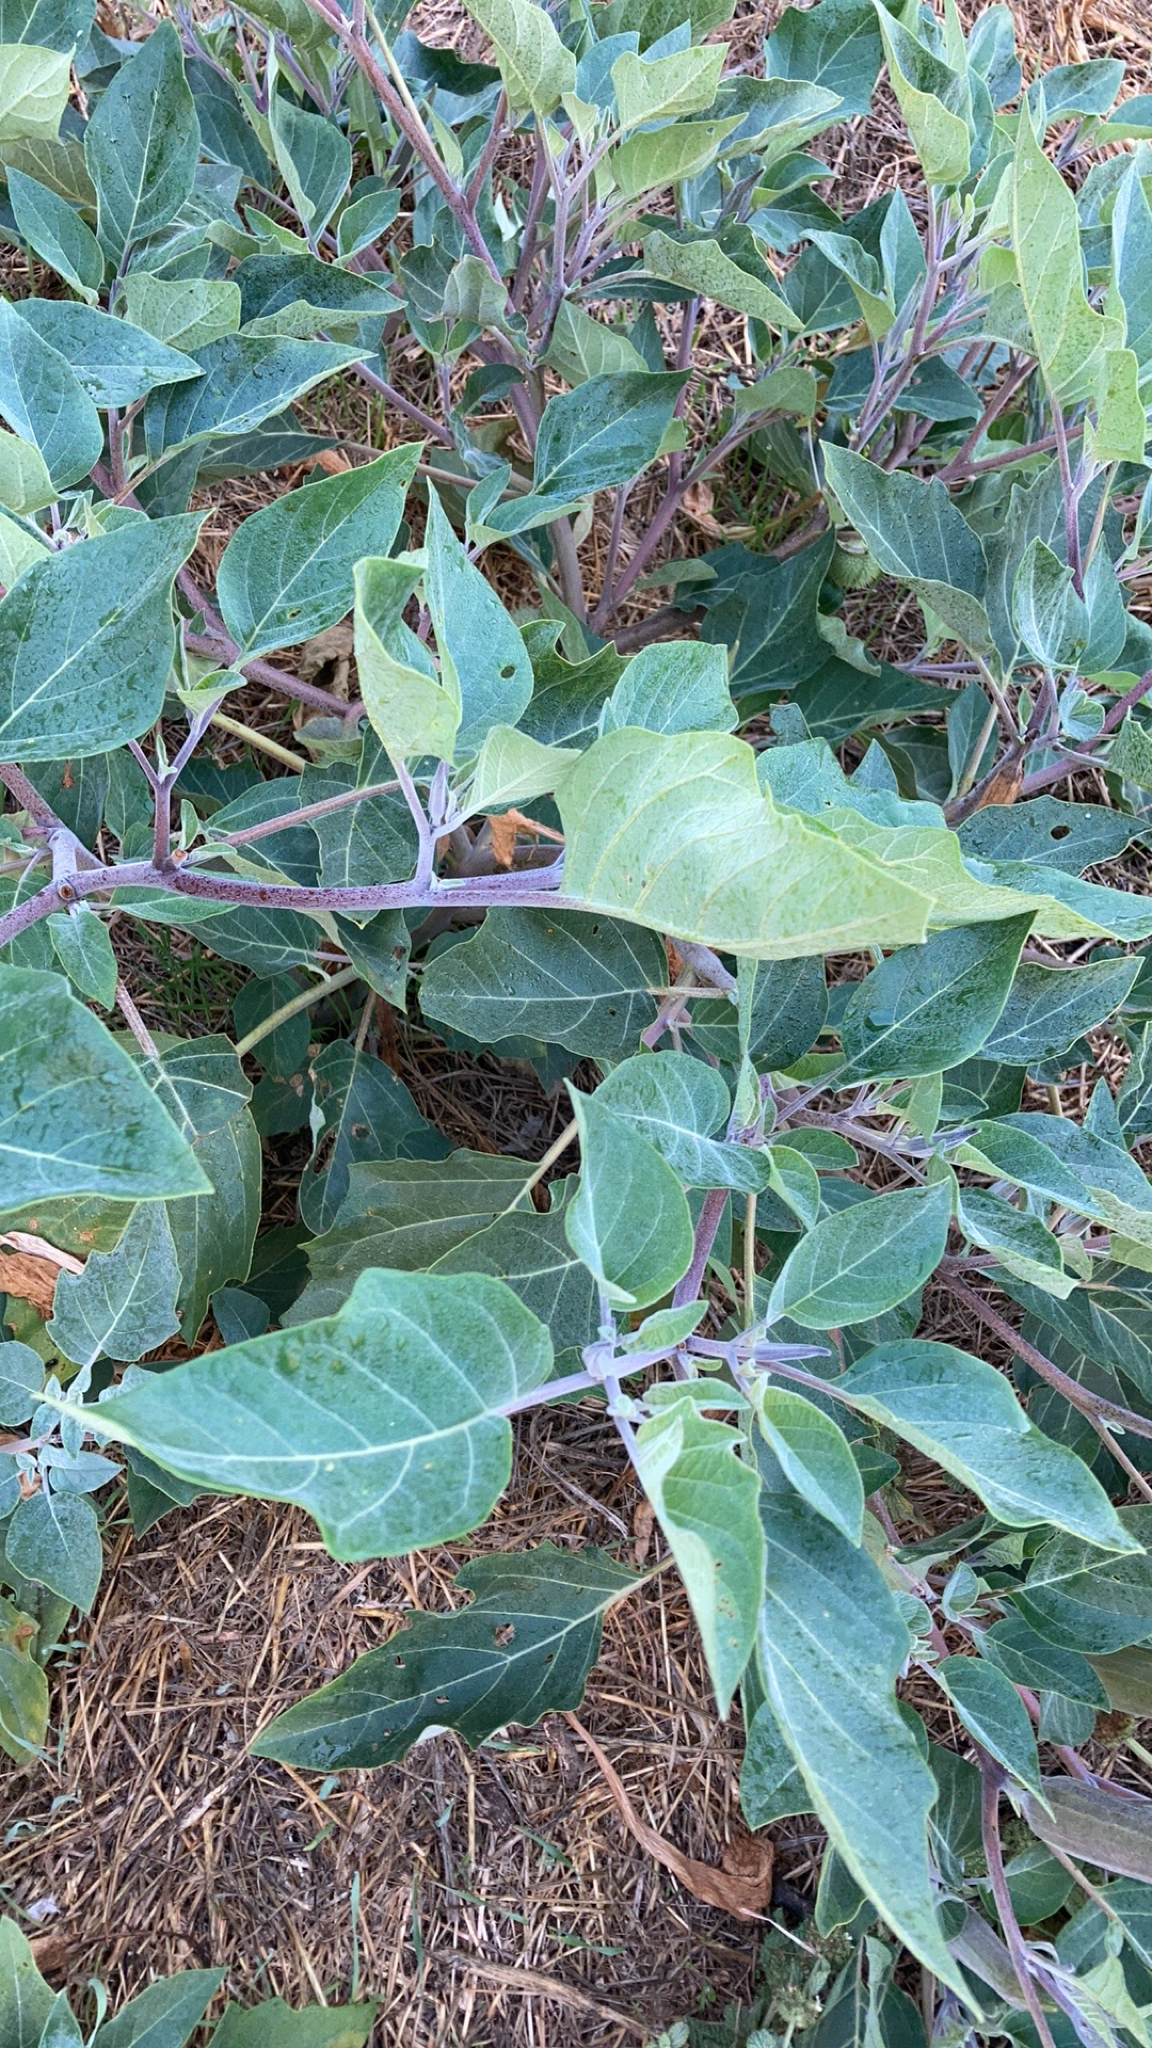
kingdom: Plantae
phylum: Tracheophyta
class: Magnoliopsida
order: Solanales
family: Solanaceae
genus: Datura
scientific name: Datura wrightii
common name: Sacred thorn-apple
